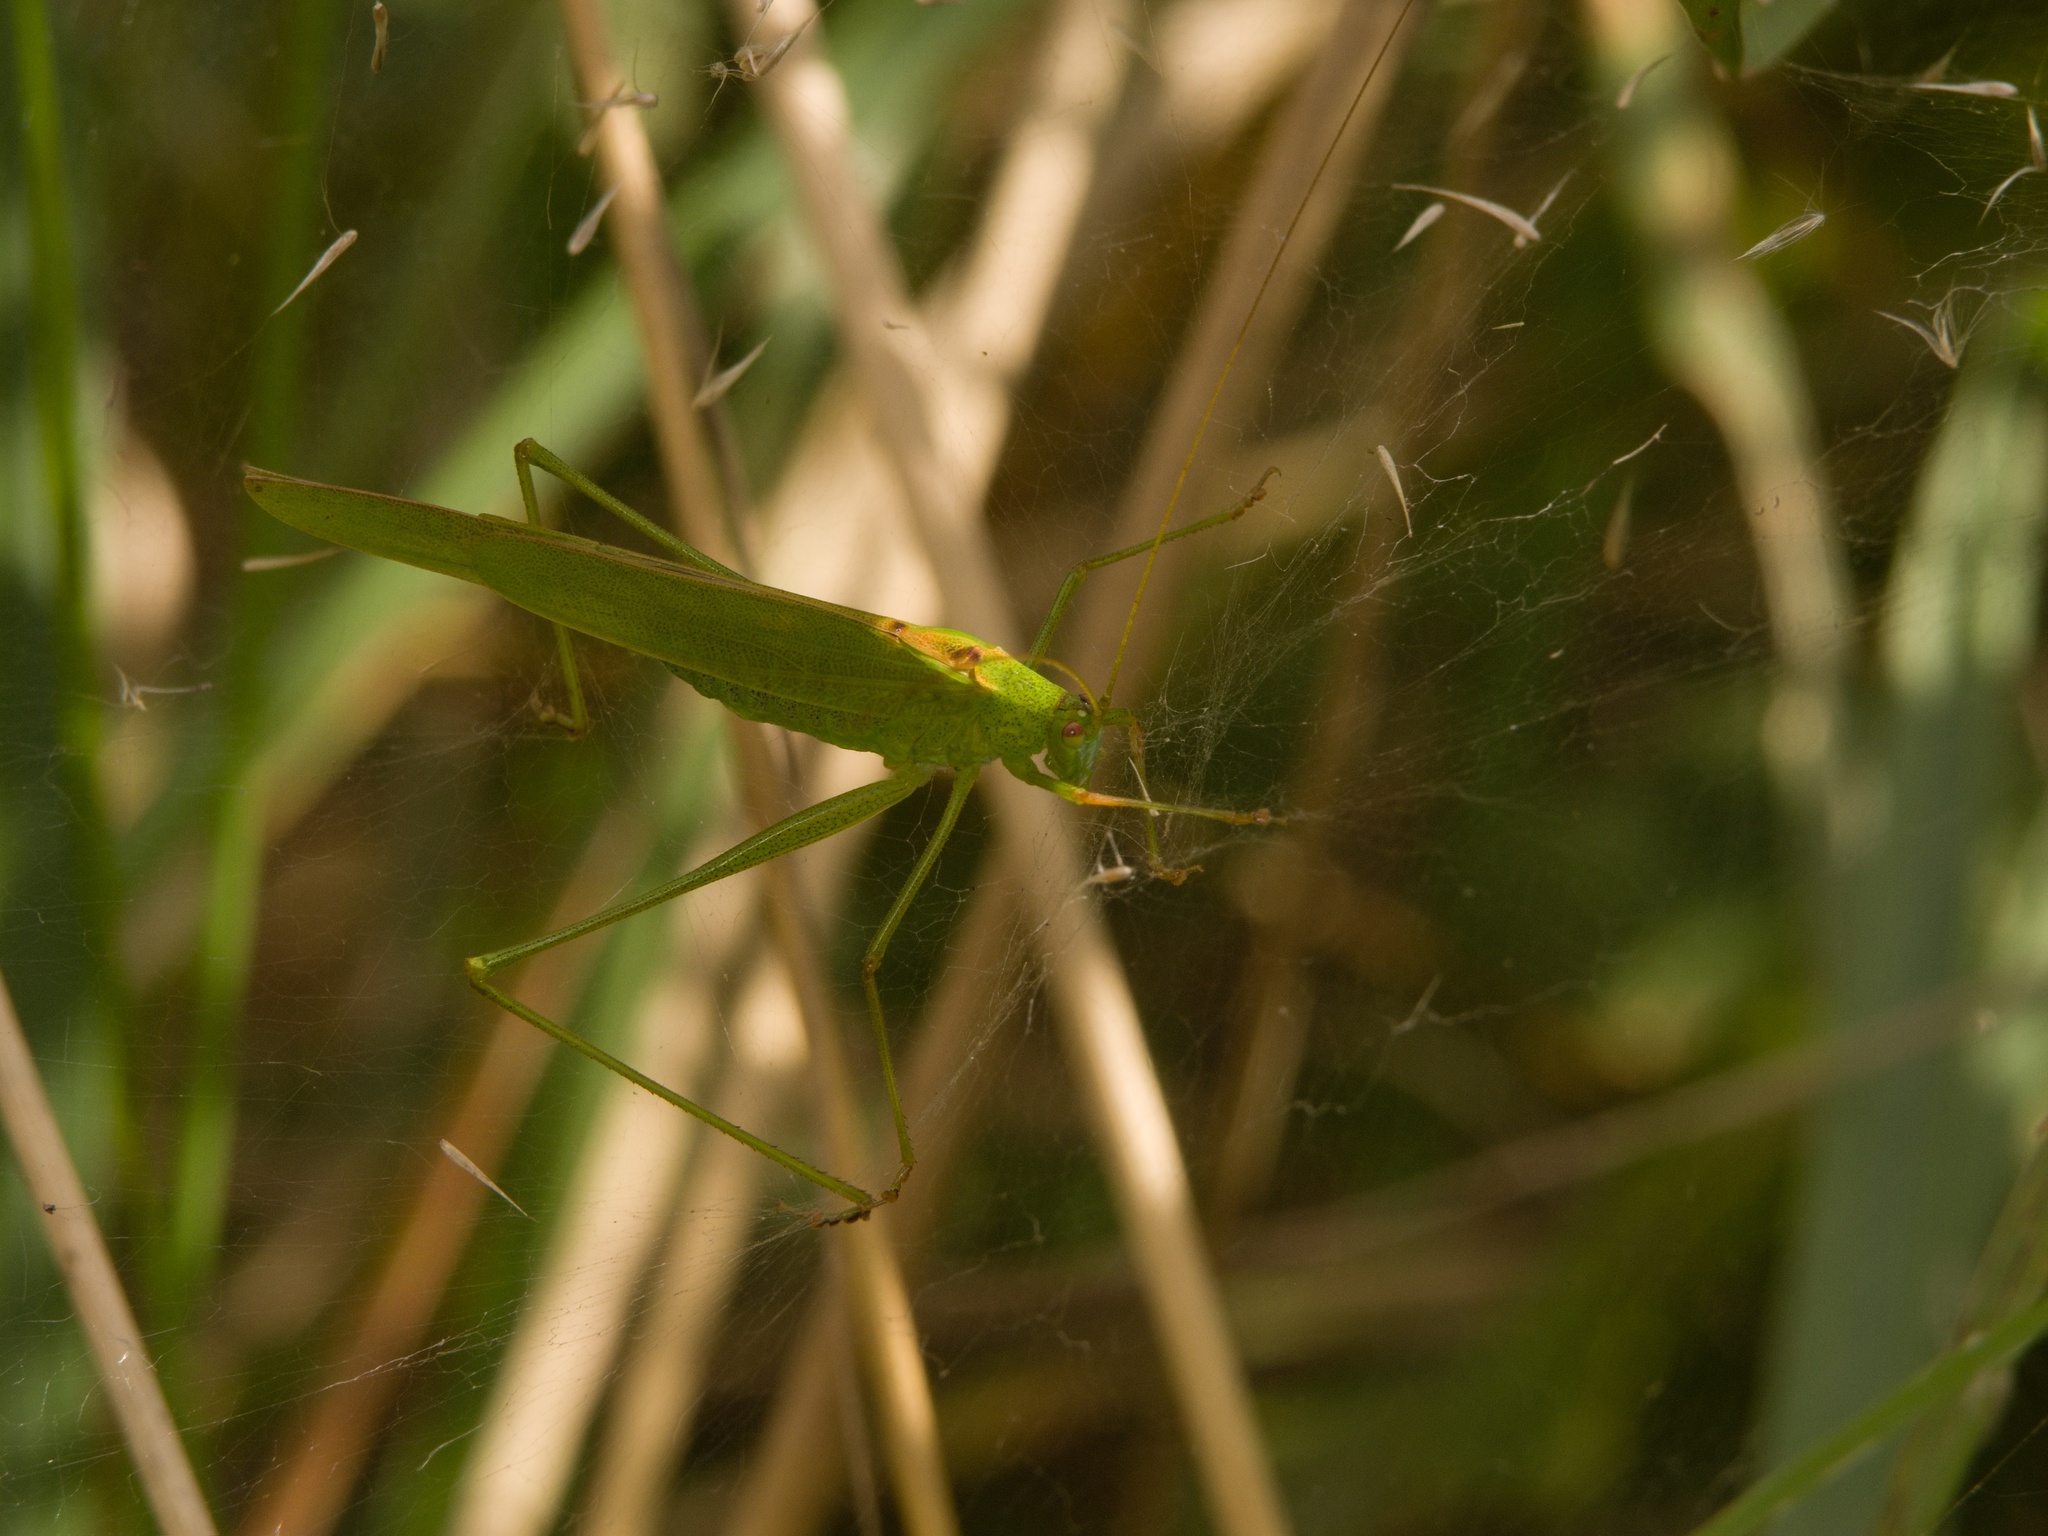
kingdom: Animalia
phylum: Arthropoda
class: Insecta
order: Orthoptera
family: Tettigoniidae
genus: Phaneroptera
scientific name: Phaneroptera falcata
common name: Sickle-bearing bush-cricket
